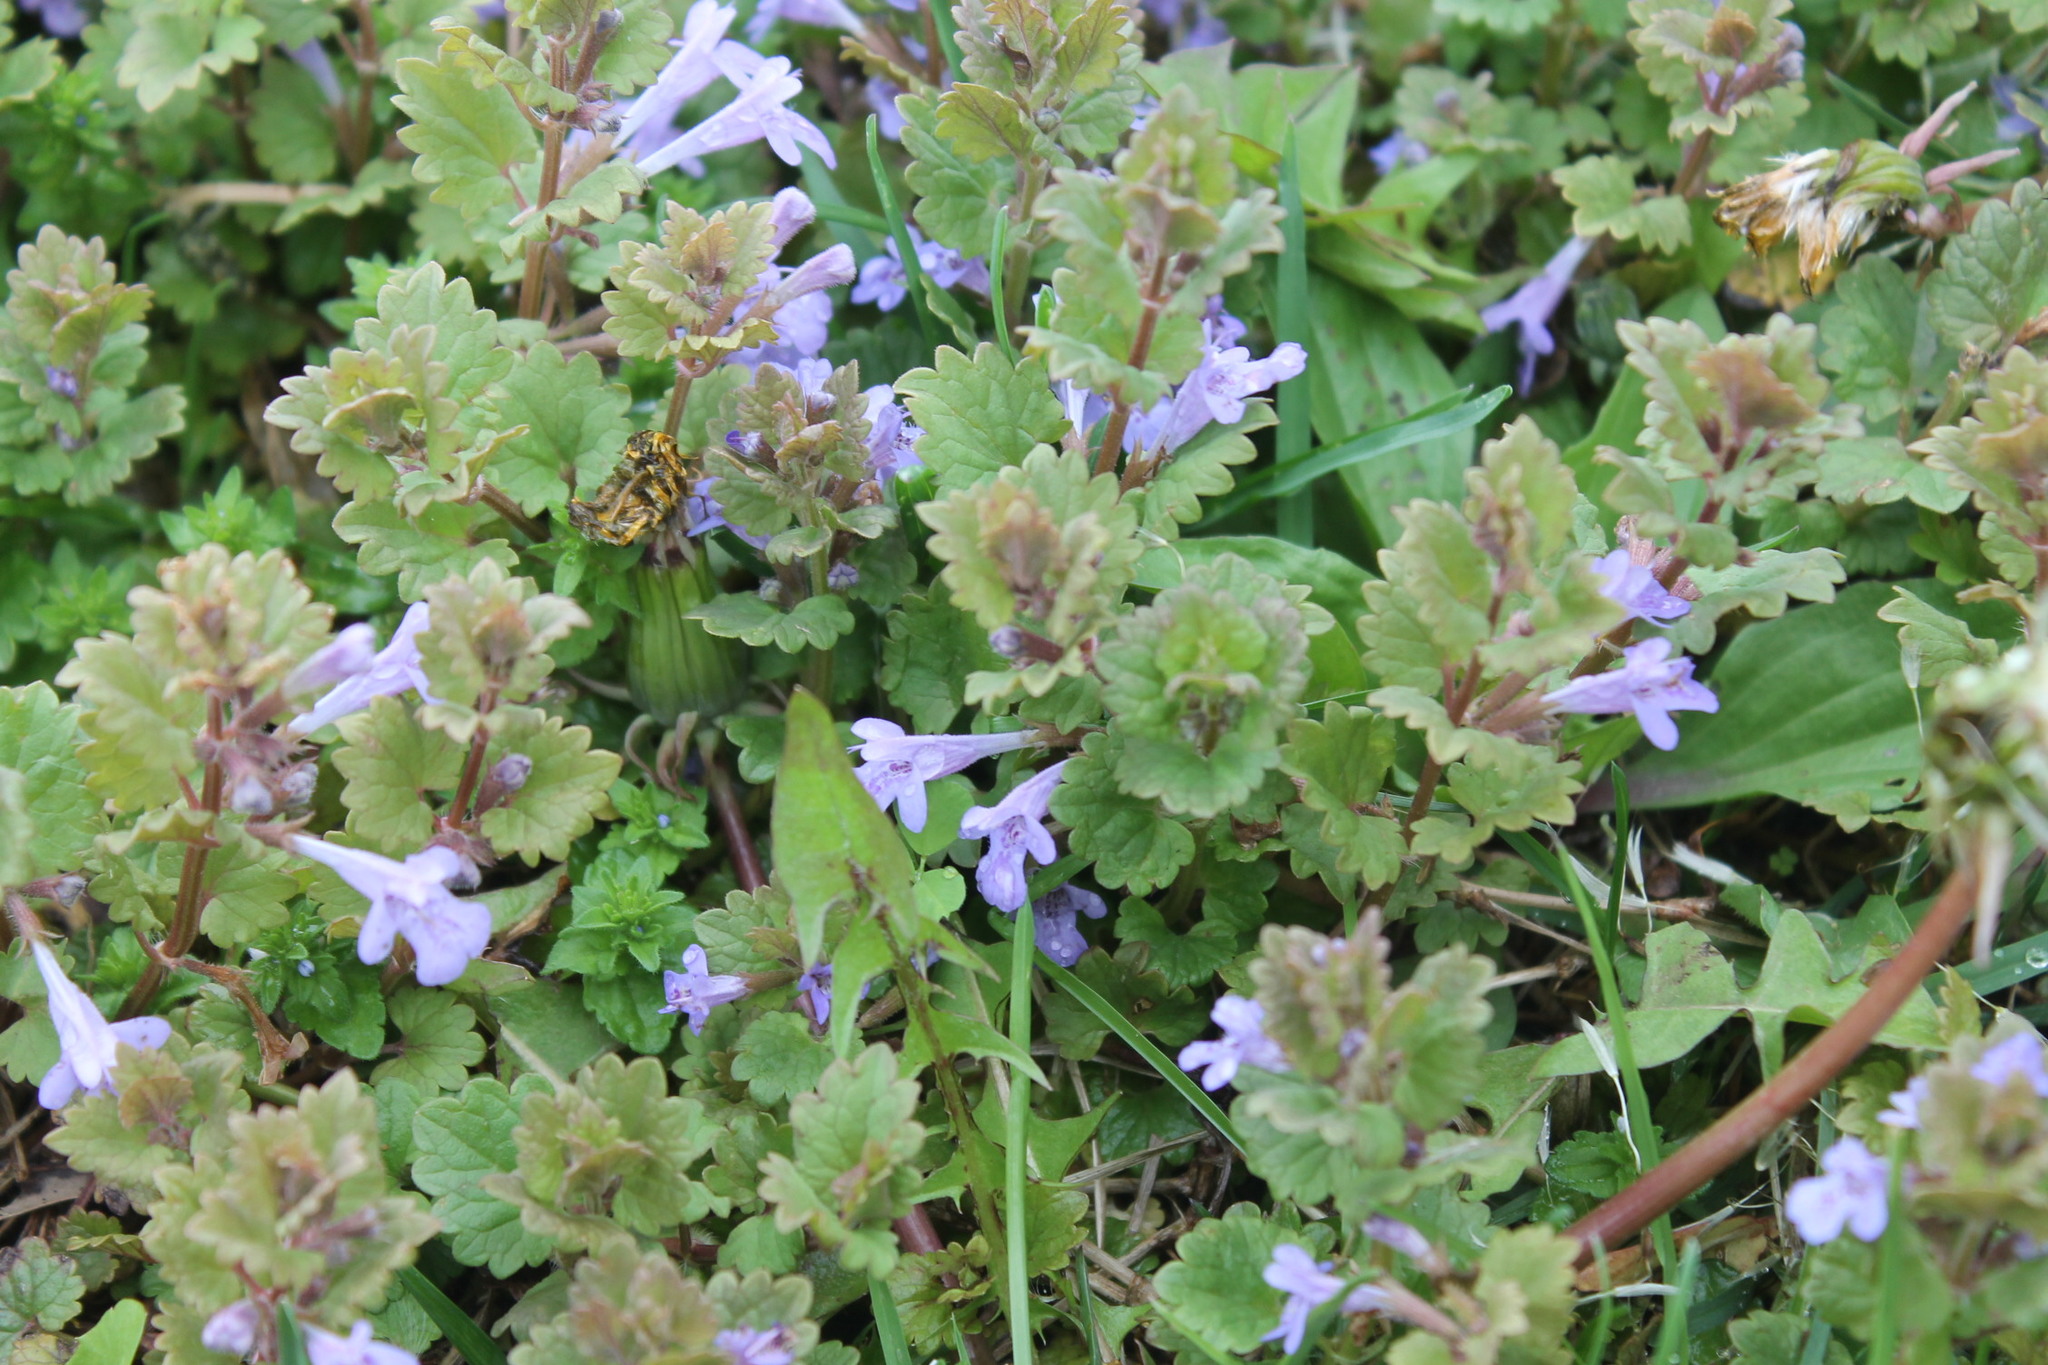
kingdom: Plantae
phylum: Tracheophyta
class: Magnoliopsida
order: Lamiales
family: Lamiaceae
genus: Glechoma
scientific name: Glechoma hederacea
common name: Ground ivy
